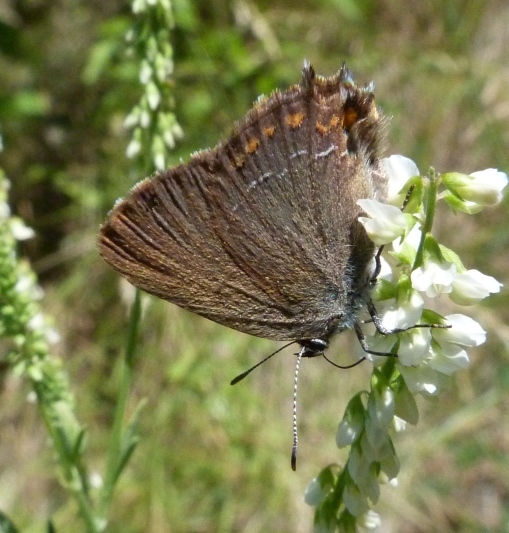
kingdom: Animalia
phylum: Arthropoda
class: Insecta
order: Lepidoptera
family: Lycaenidae
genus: Fixsenia
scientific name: Fixsenia esculi
